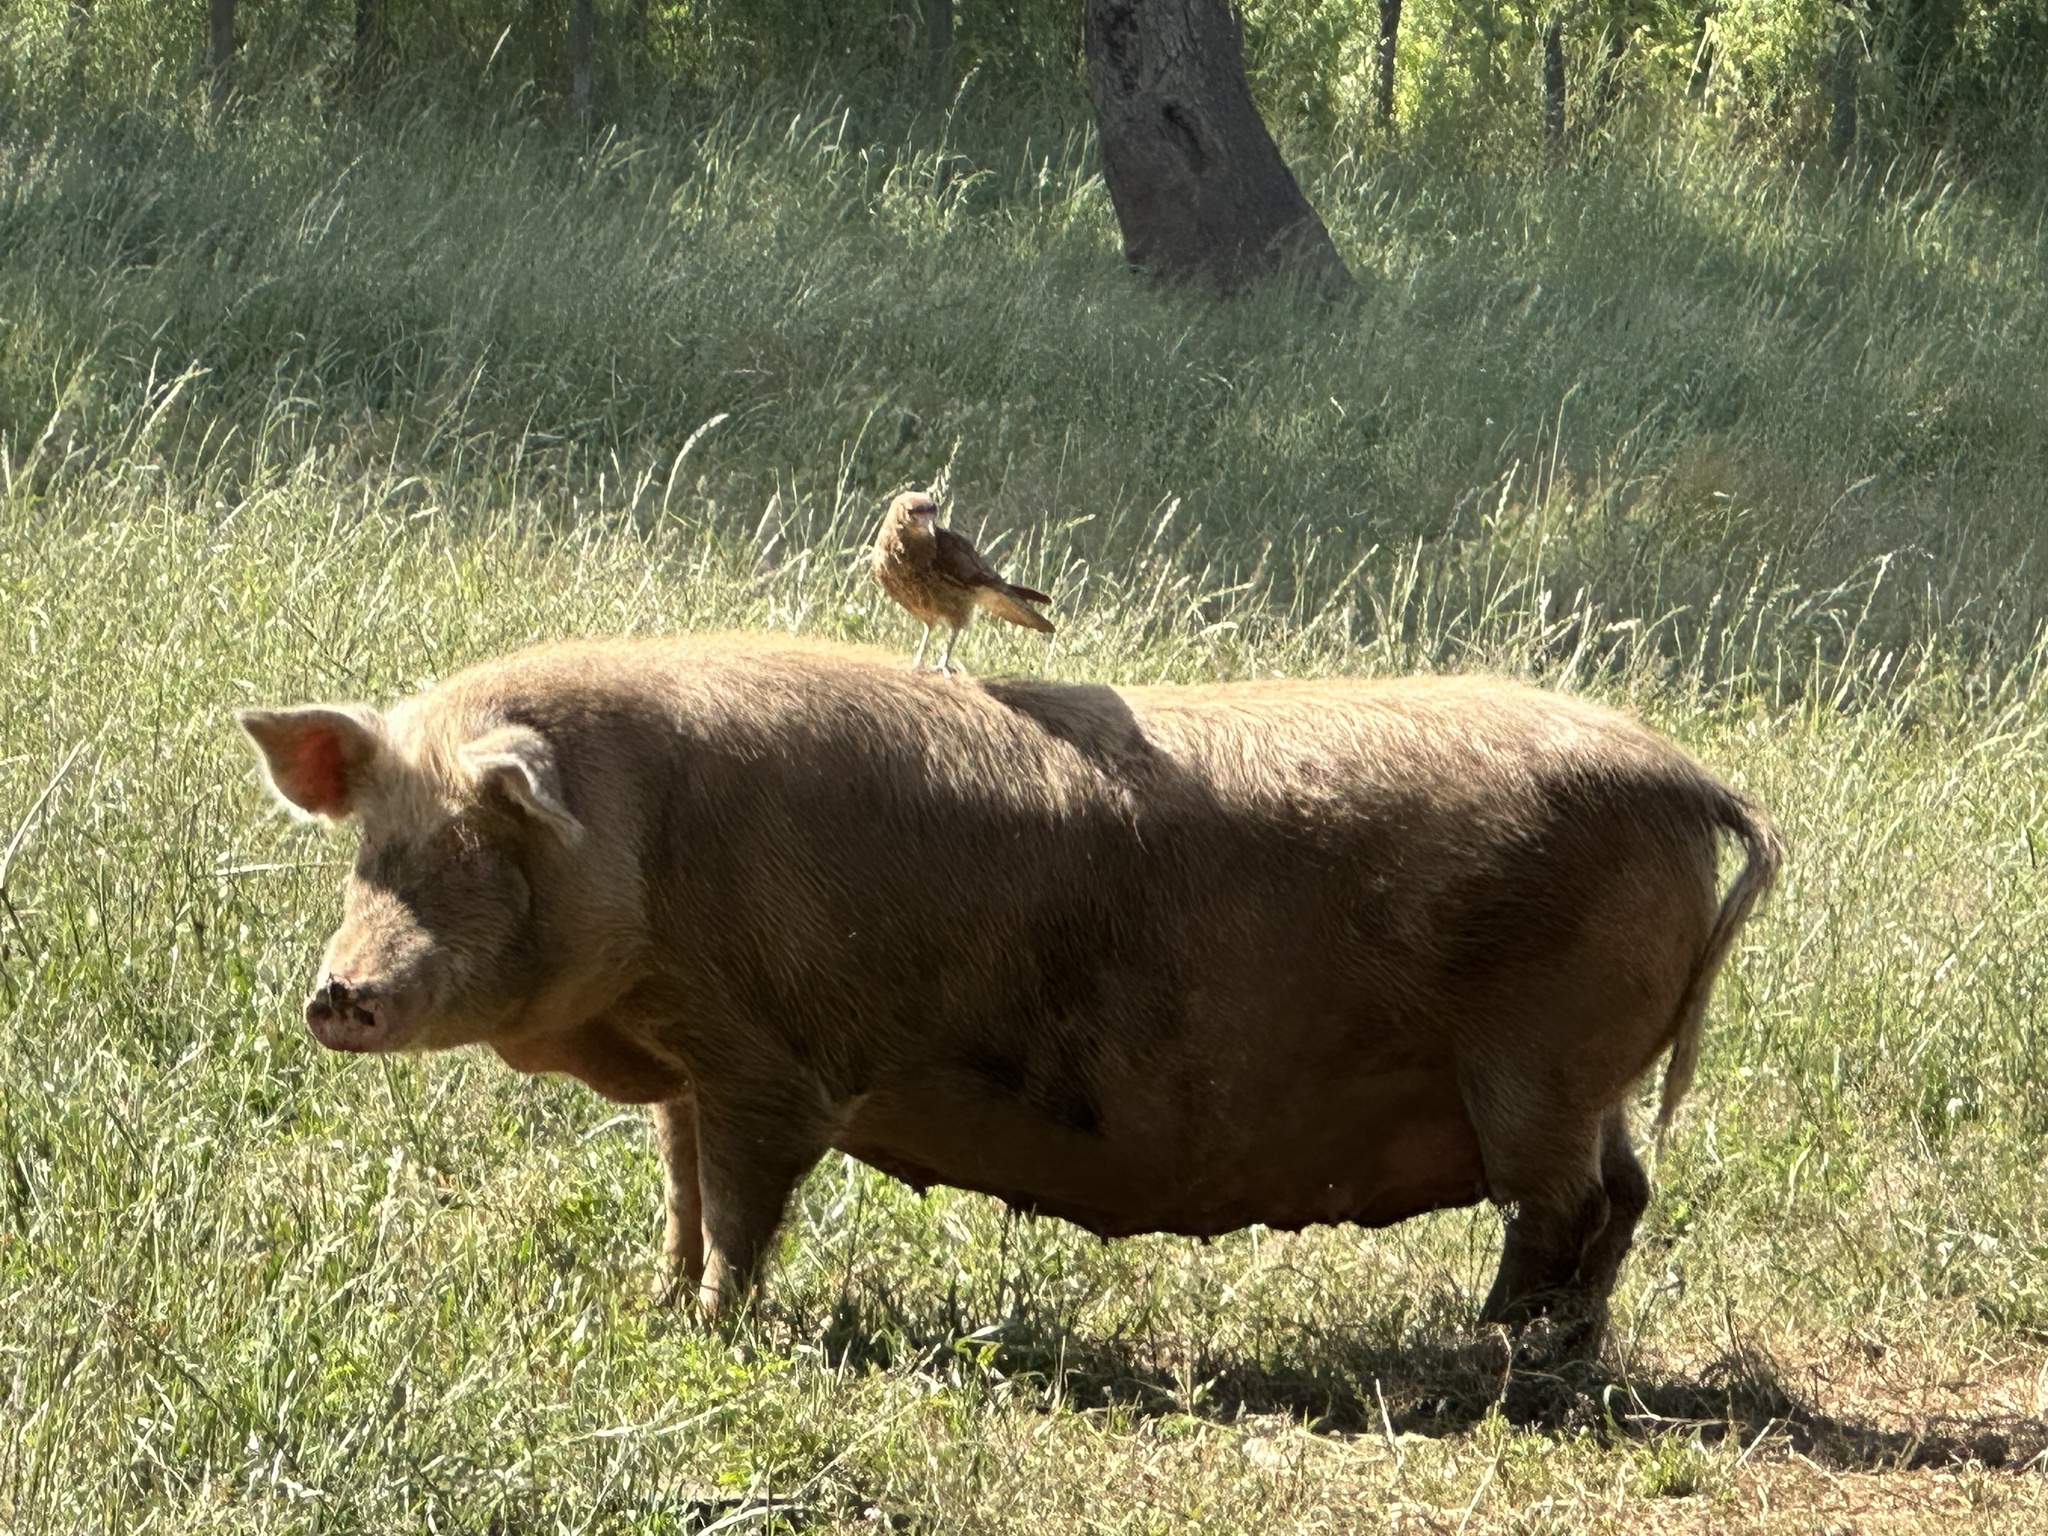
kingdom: Animalia
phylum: Chordata
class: Aves
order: Falconiformes
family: Falconidae
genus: Daptrius
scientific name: Daptrius
